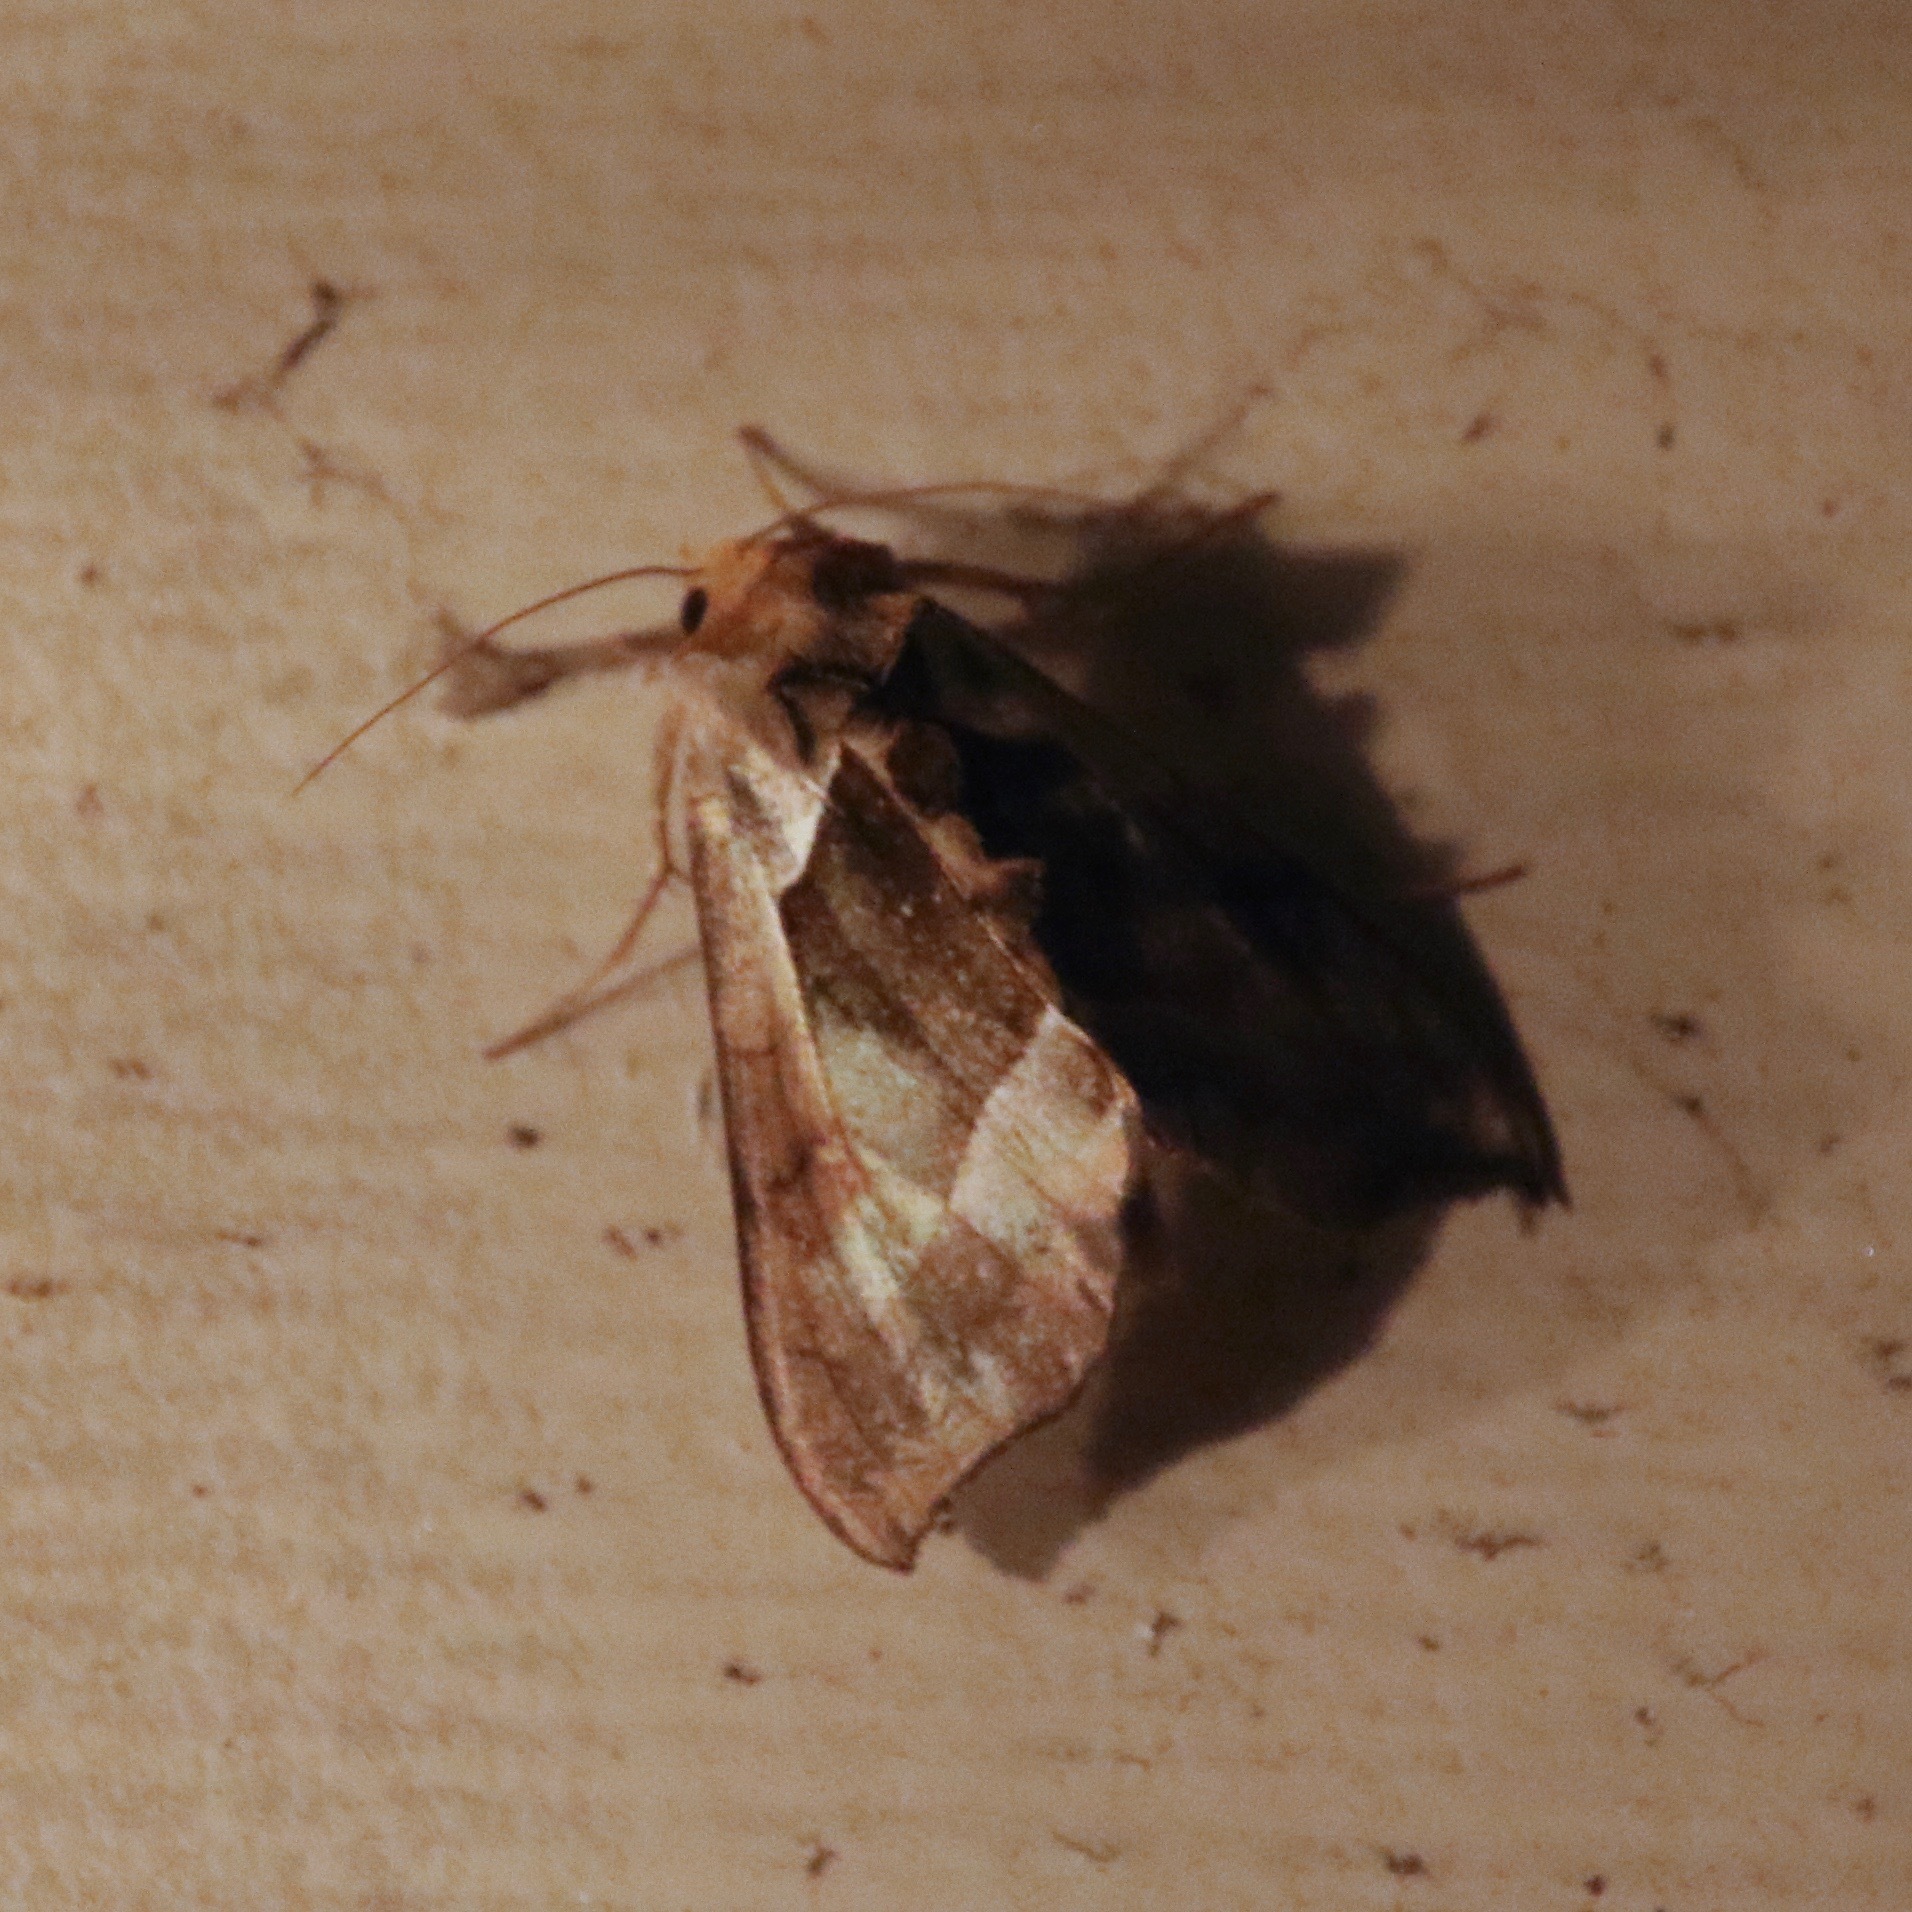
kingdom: Animalia
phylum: Arthropoda
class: Insecta
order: Lepidoptera
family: Noctuidae
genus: Diachrysia
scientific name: Diachrysia balluca
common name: Green-patched looper moth
